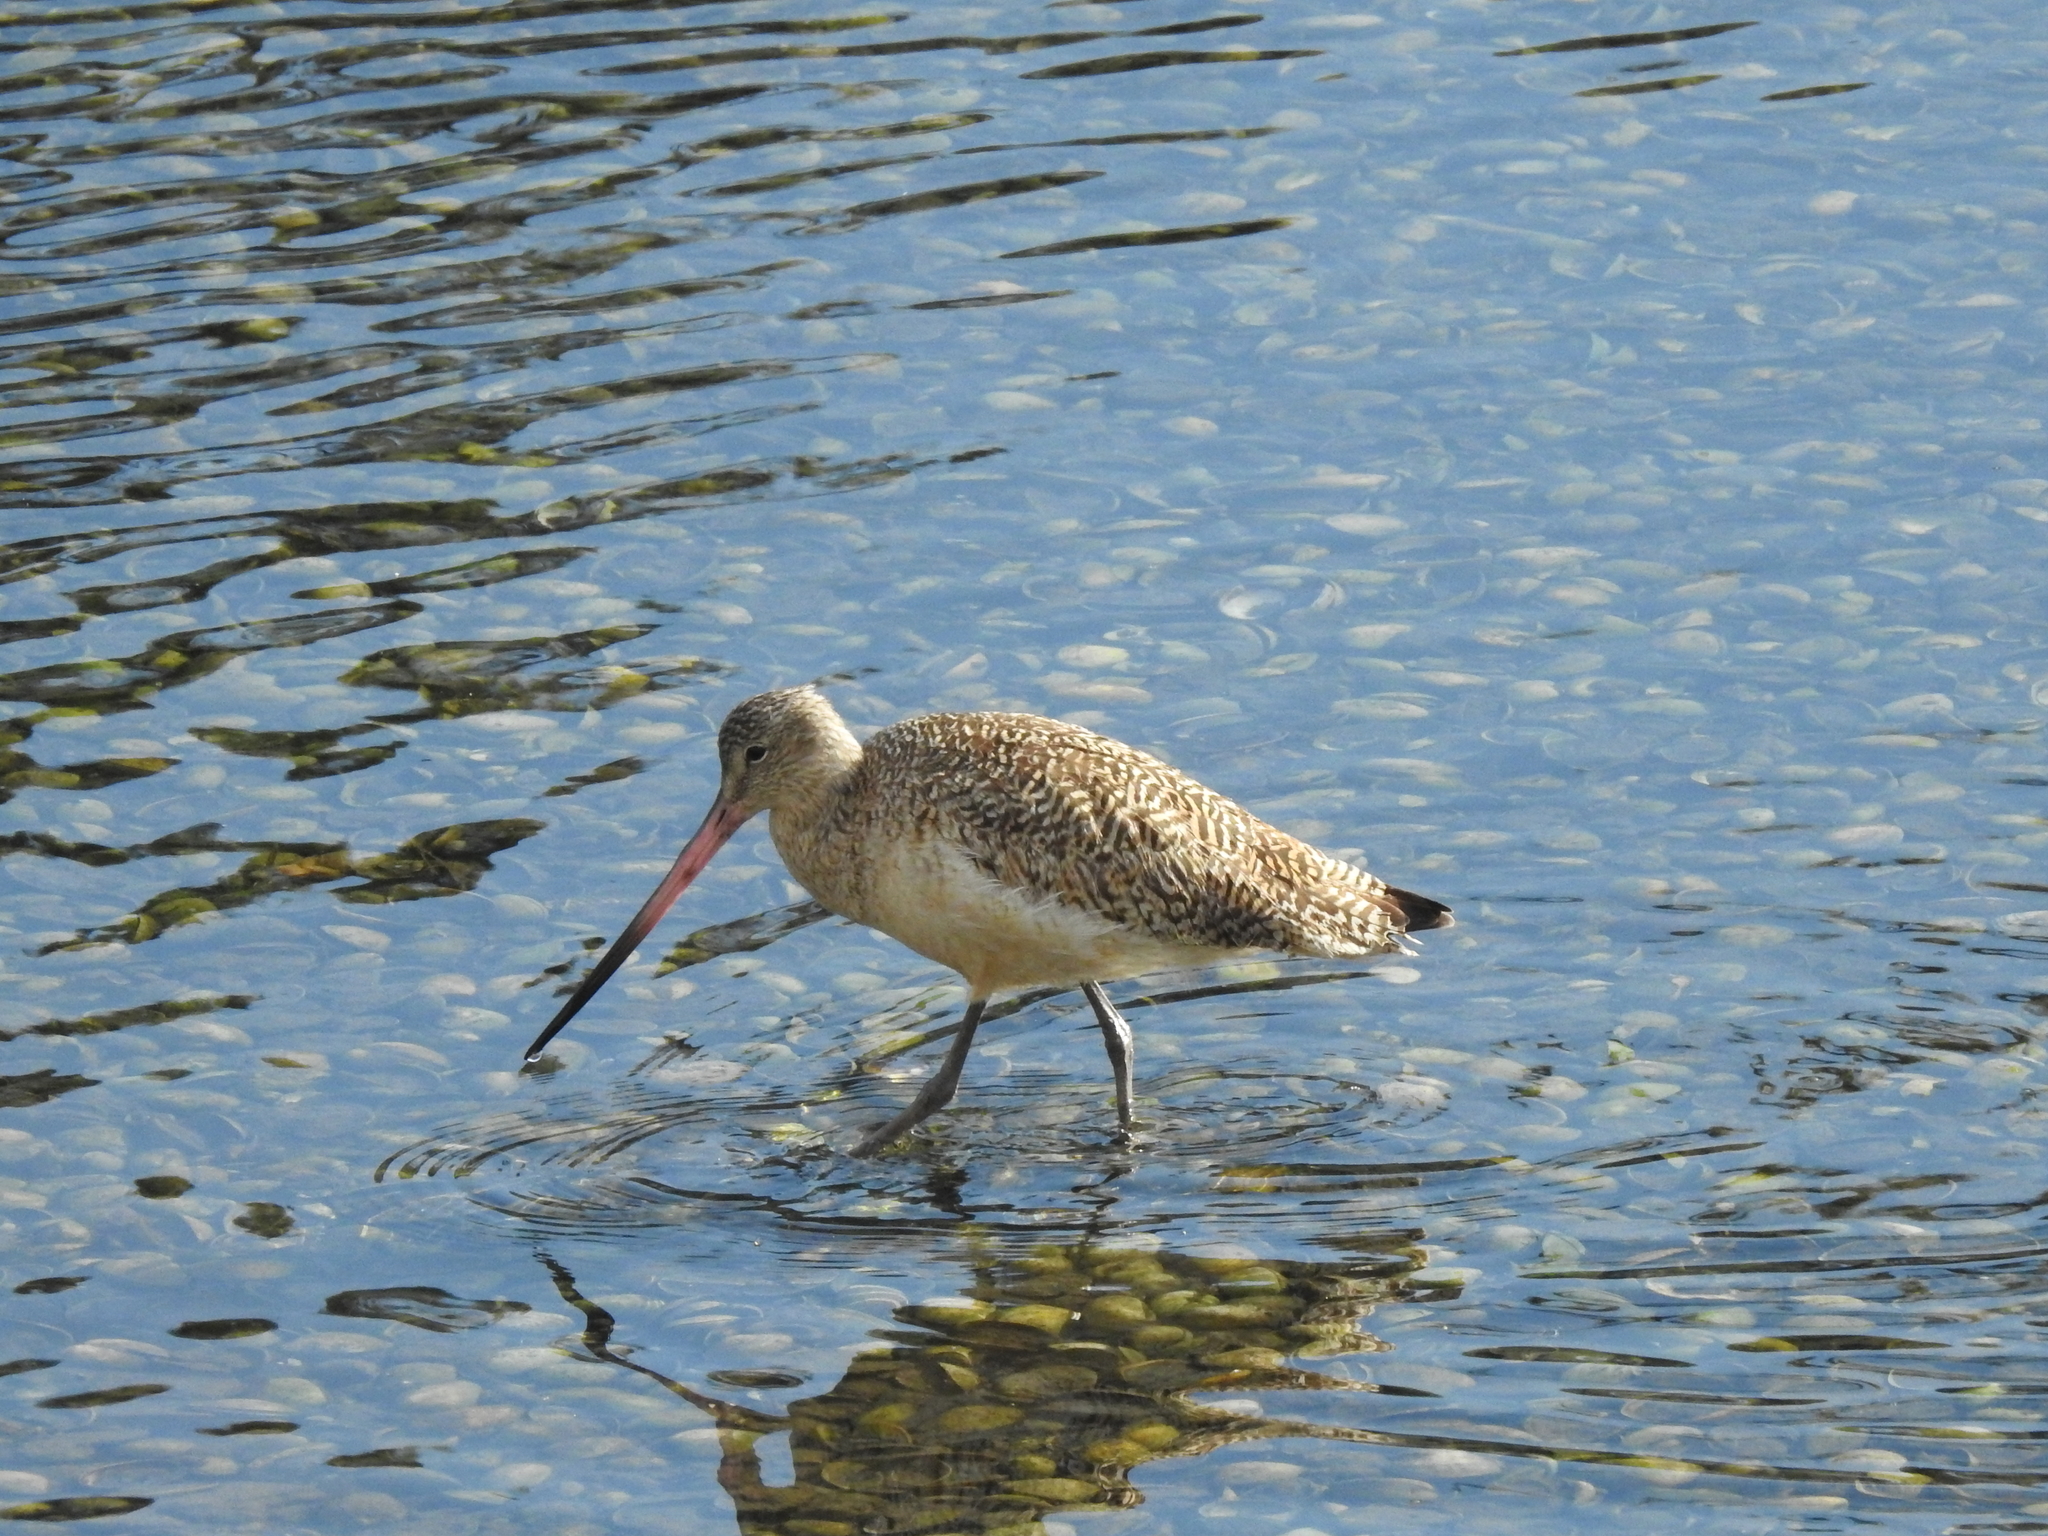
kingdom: Animalia
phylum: Chordata
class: Aves
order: Charadriiformes
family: Scolopacidae
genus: Limosa
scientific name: Limosa fedoa
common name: Marbled godwit
